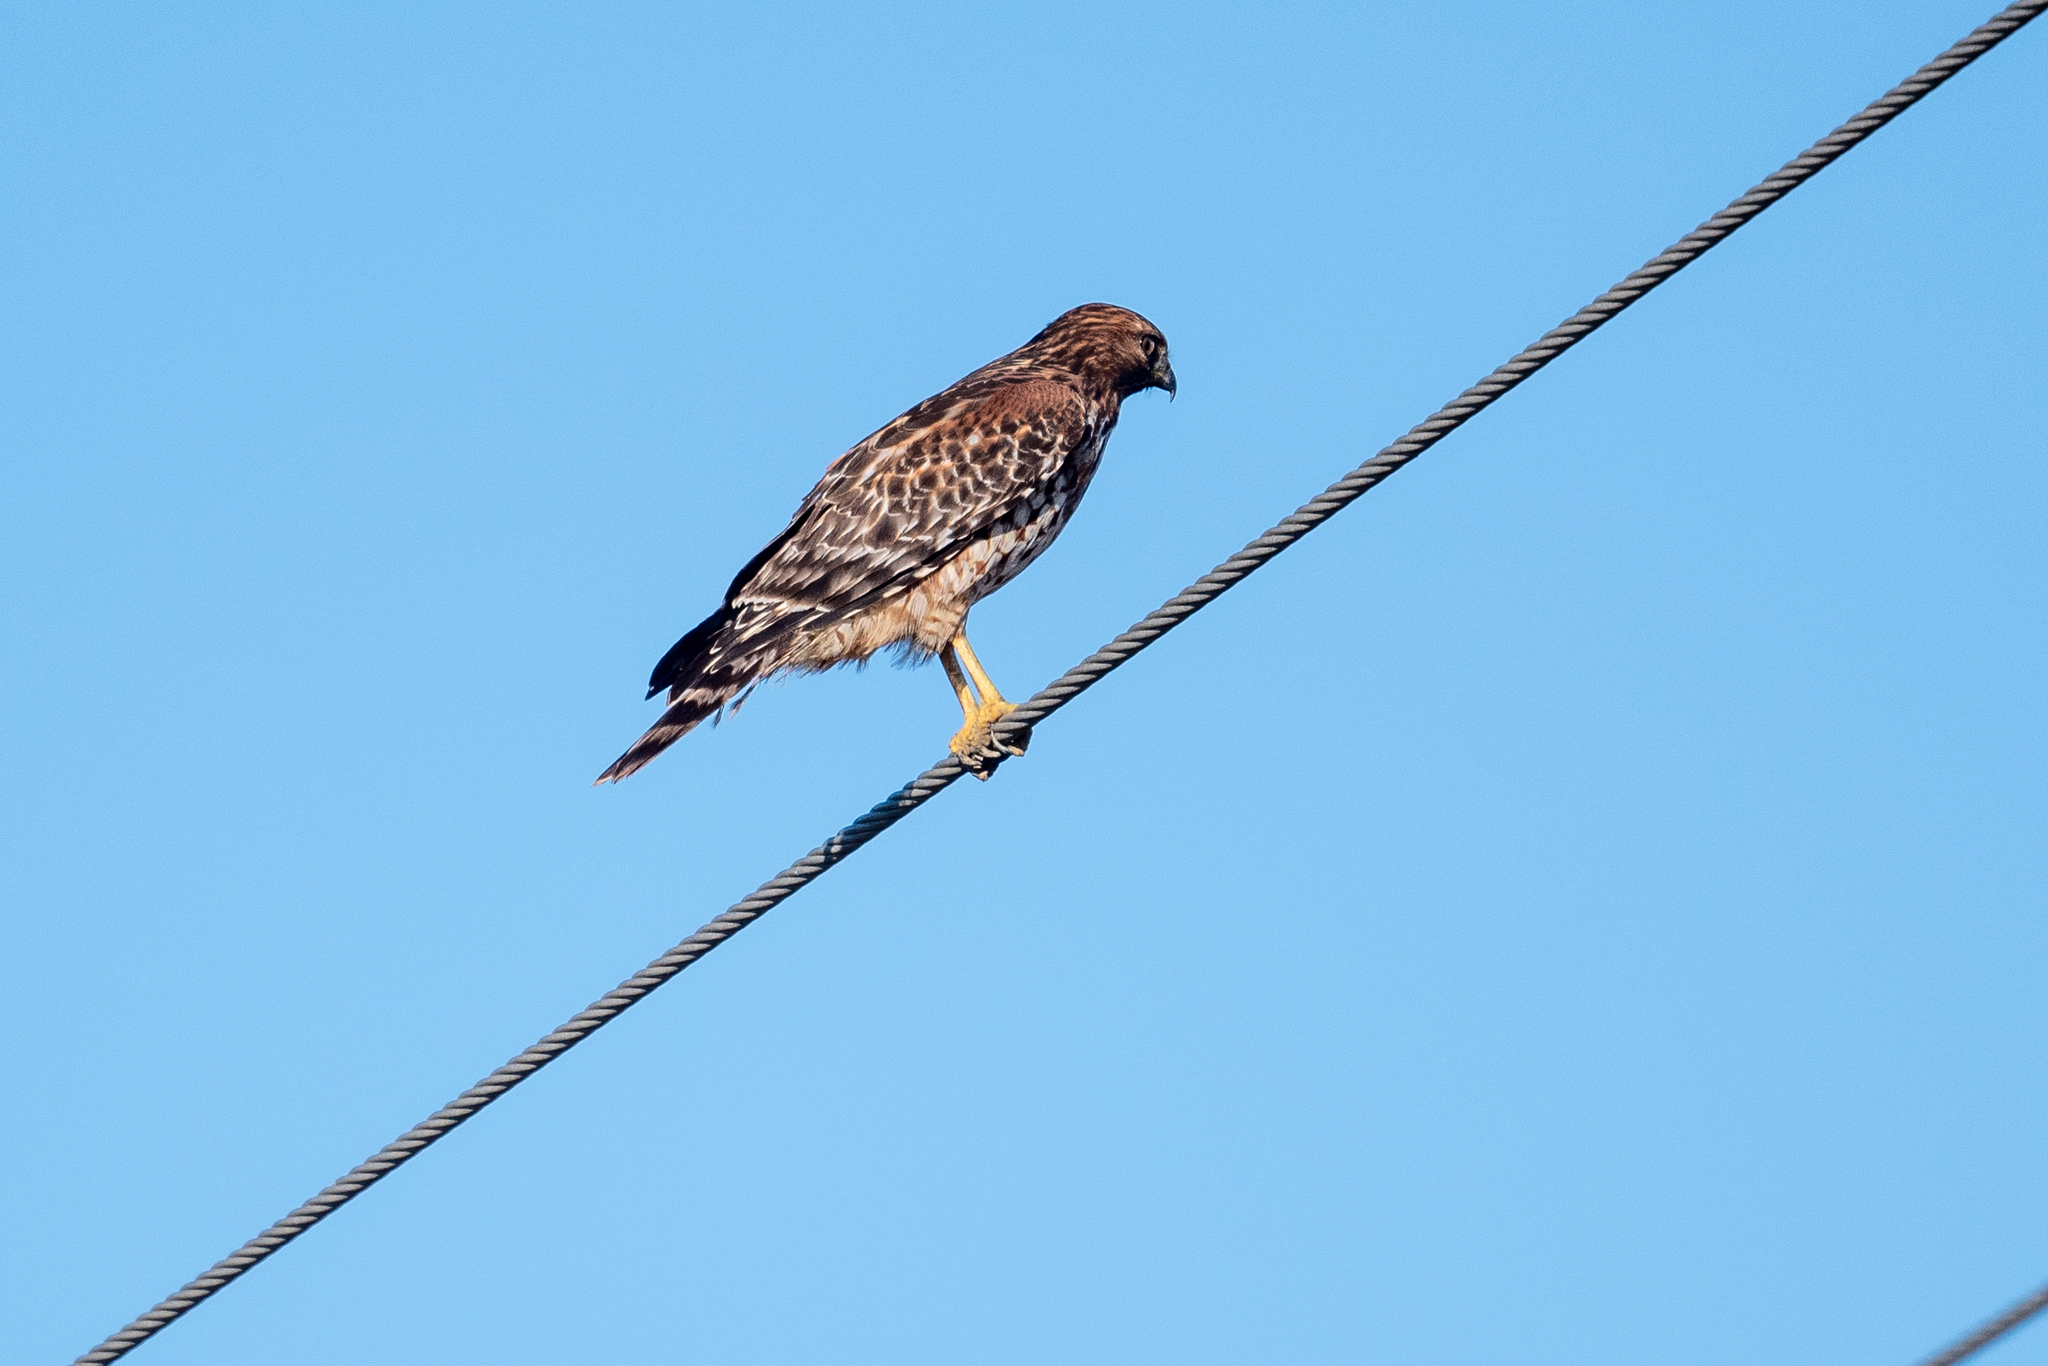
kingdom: Animalia
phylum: Chordata
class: Aves
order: Accipitriformes
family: Accipitridae
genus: Buteo
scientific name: Buteo lineatus
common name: Red-shouldered hawk
